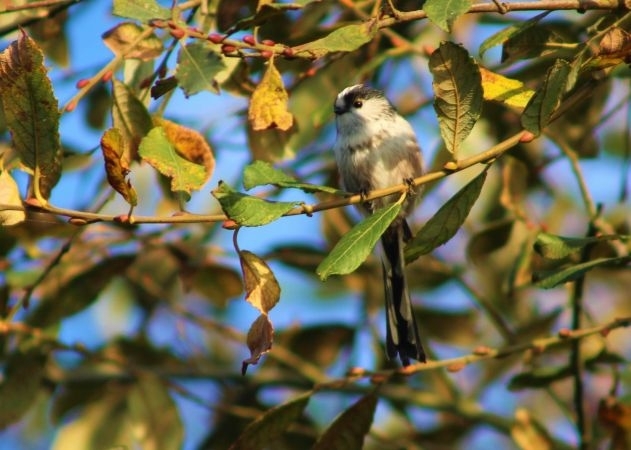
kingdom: Animalia
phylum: Chordata
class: Aves
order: Passeriformes
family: Aegithalidae
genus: Aegithalos
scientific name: Aegithalos caudatus
